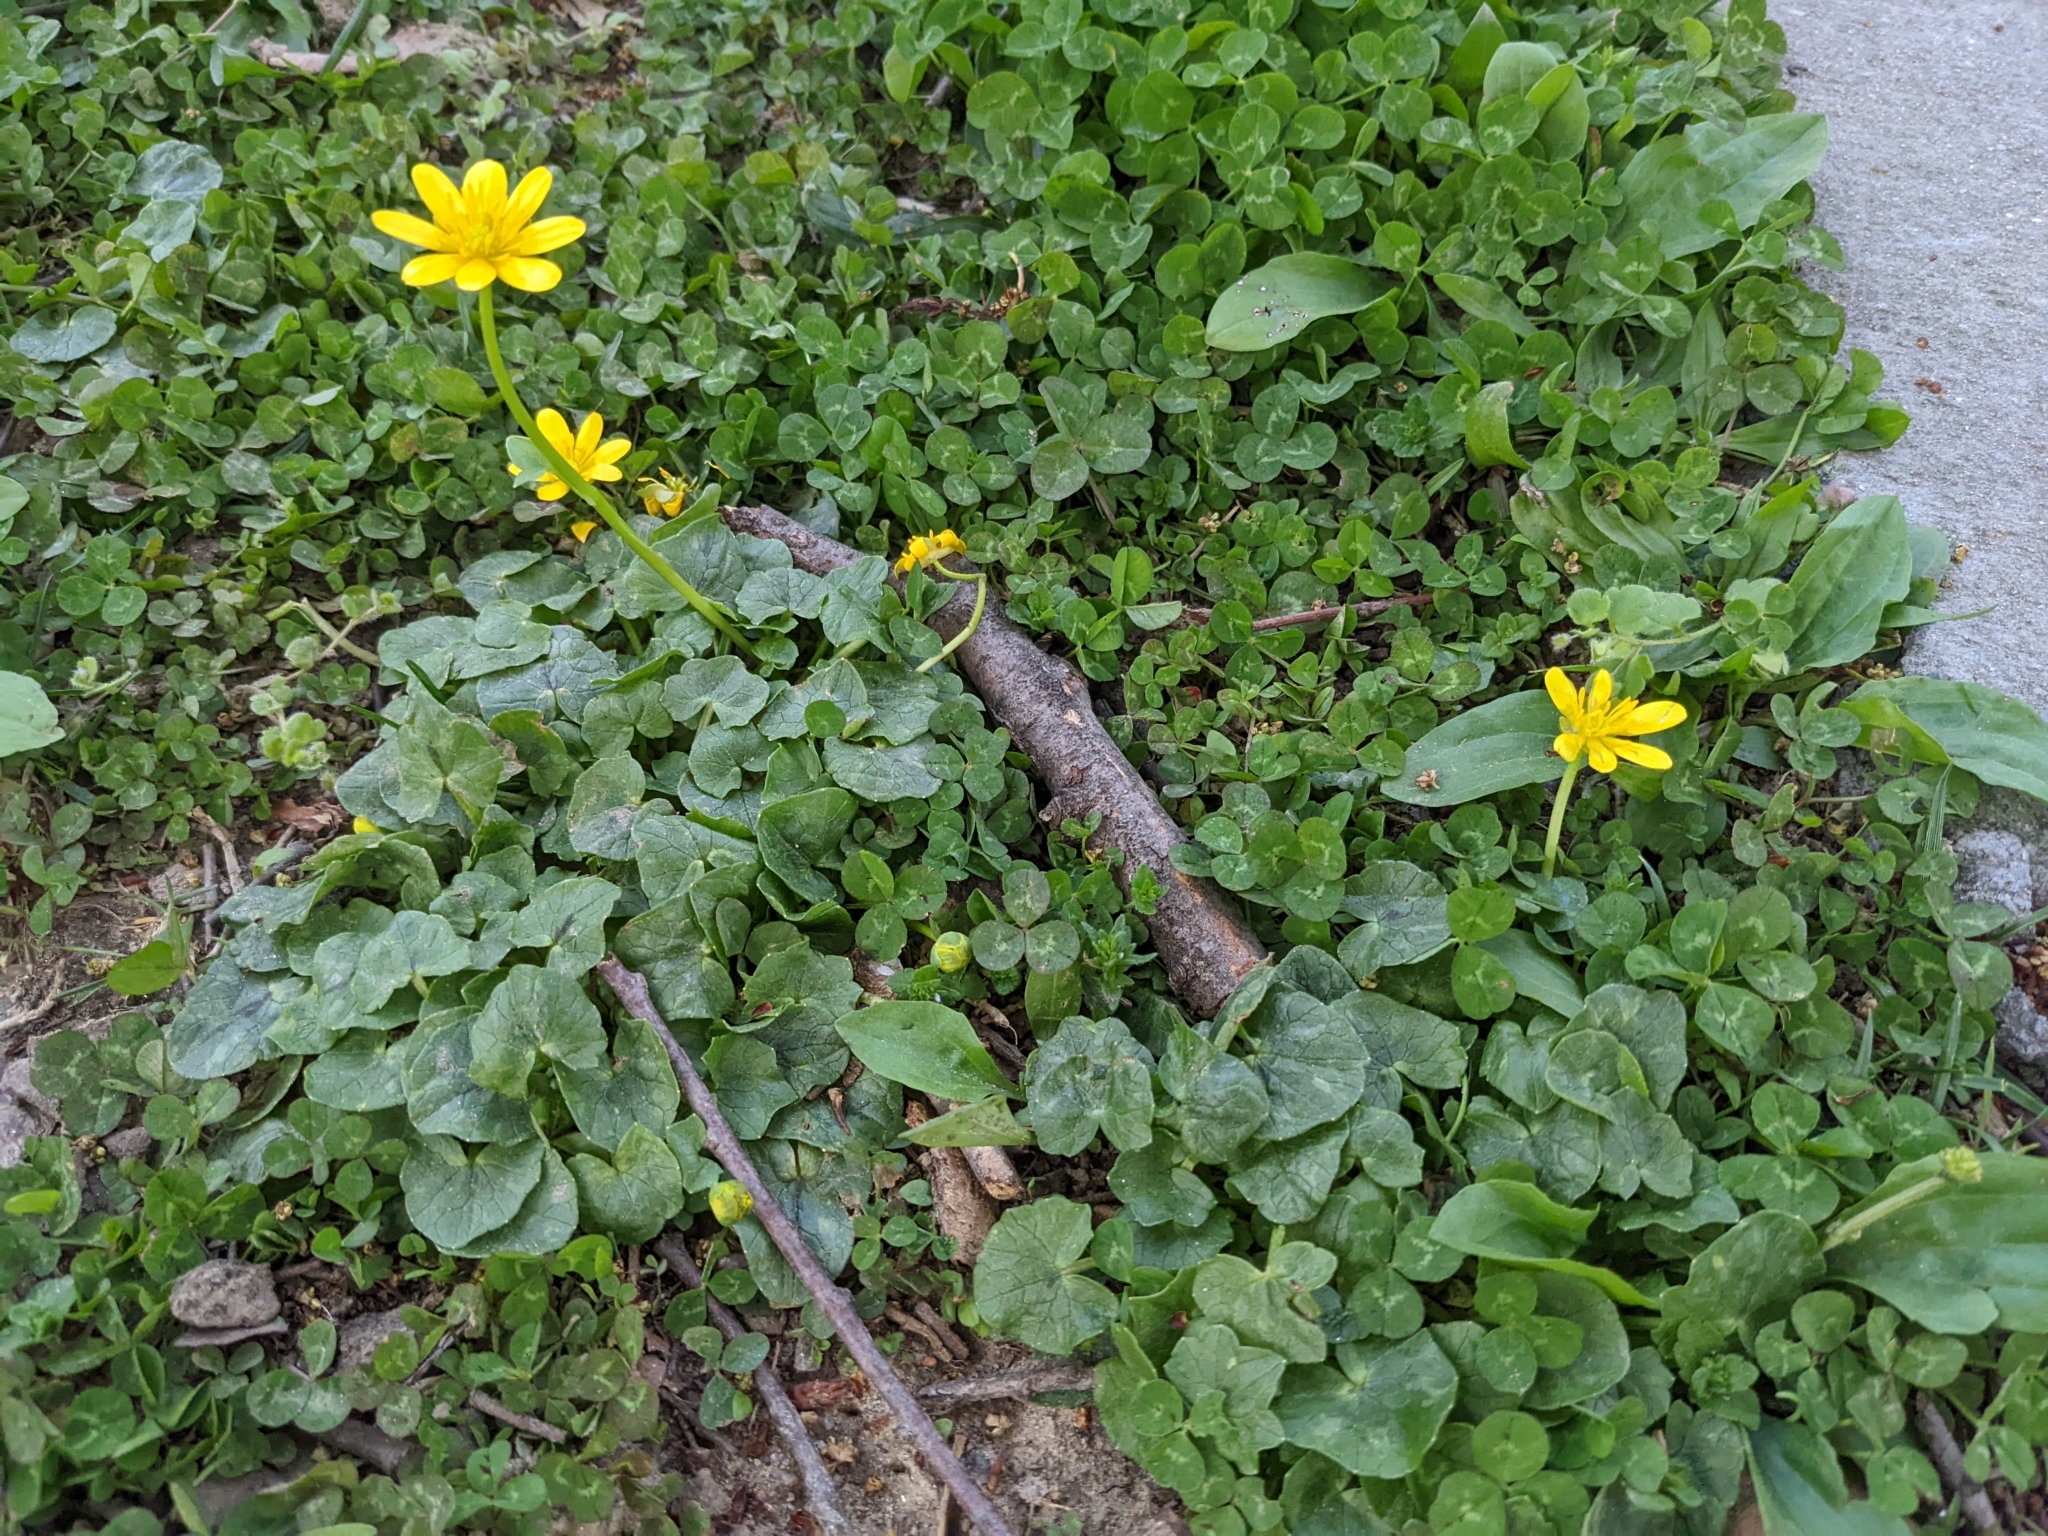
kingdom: Plantae
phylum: Tracheophyta
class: Magnoliopsida
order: Ranunculales
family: Ranunculaceae
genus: Ficaria
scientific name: Ficaria verna
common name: Lesser celandine
